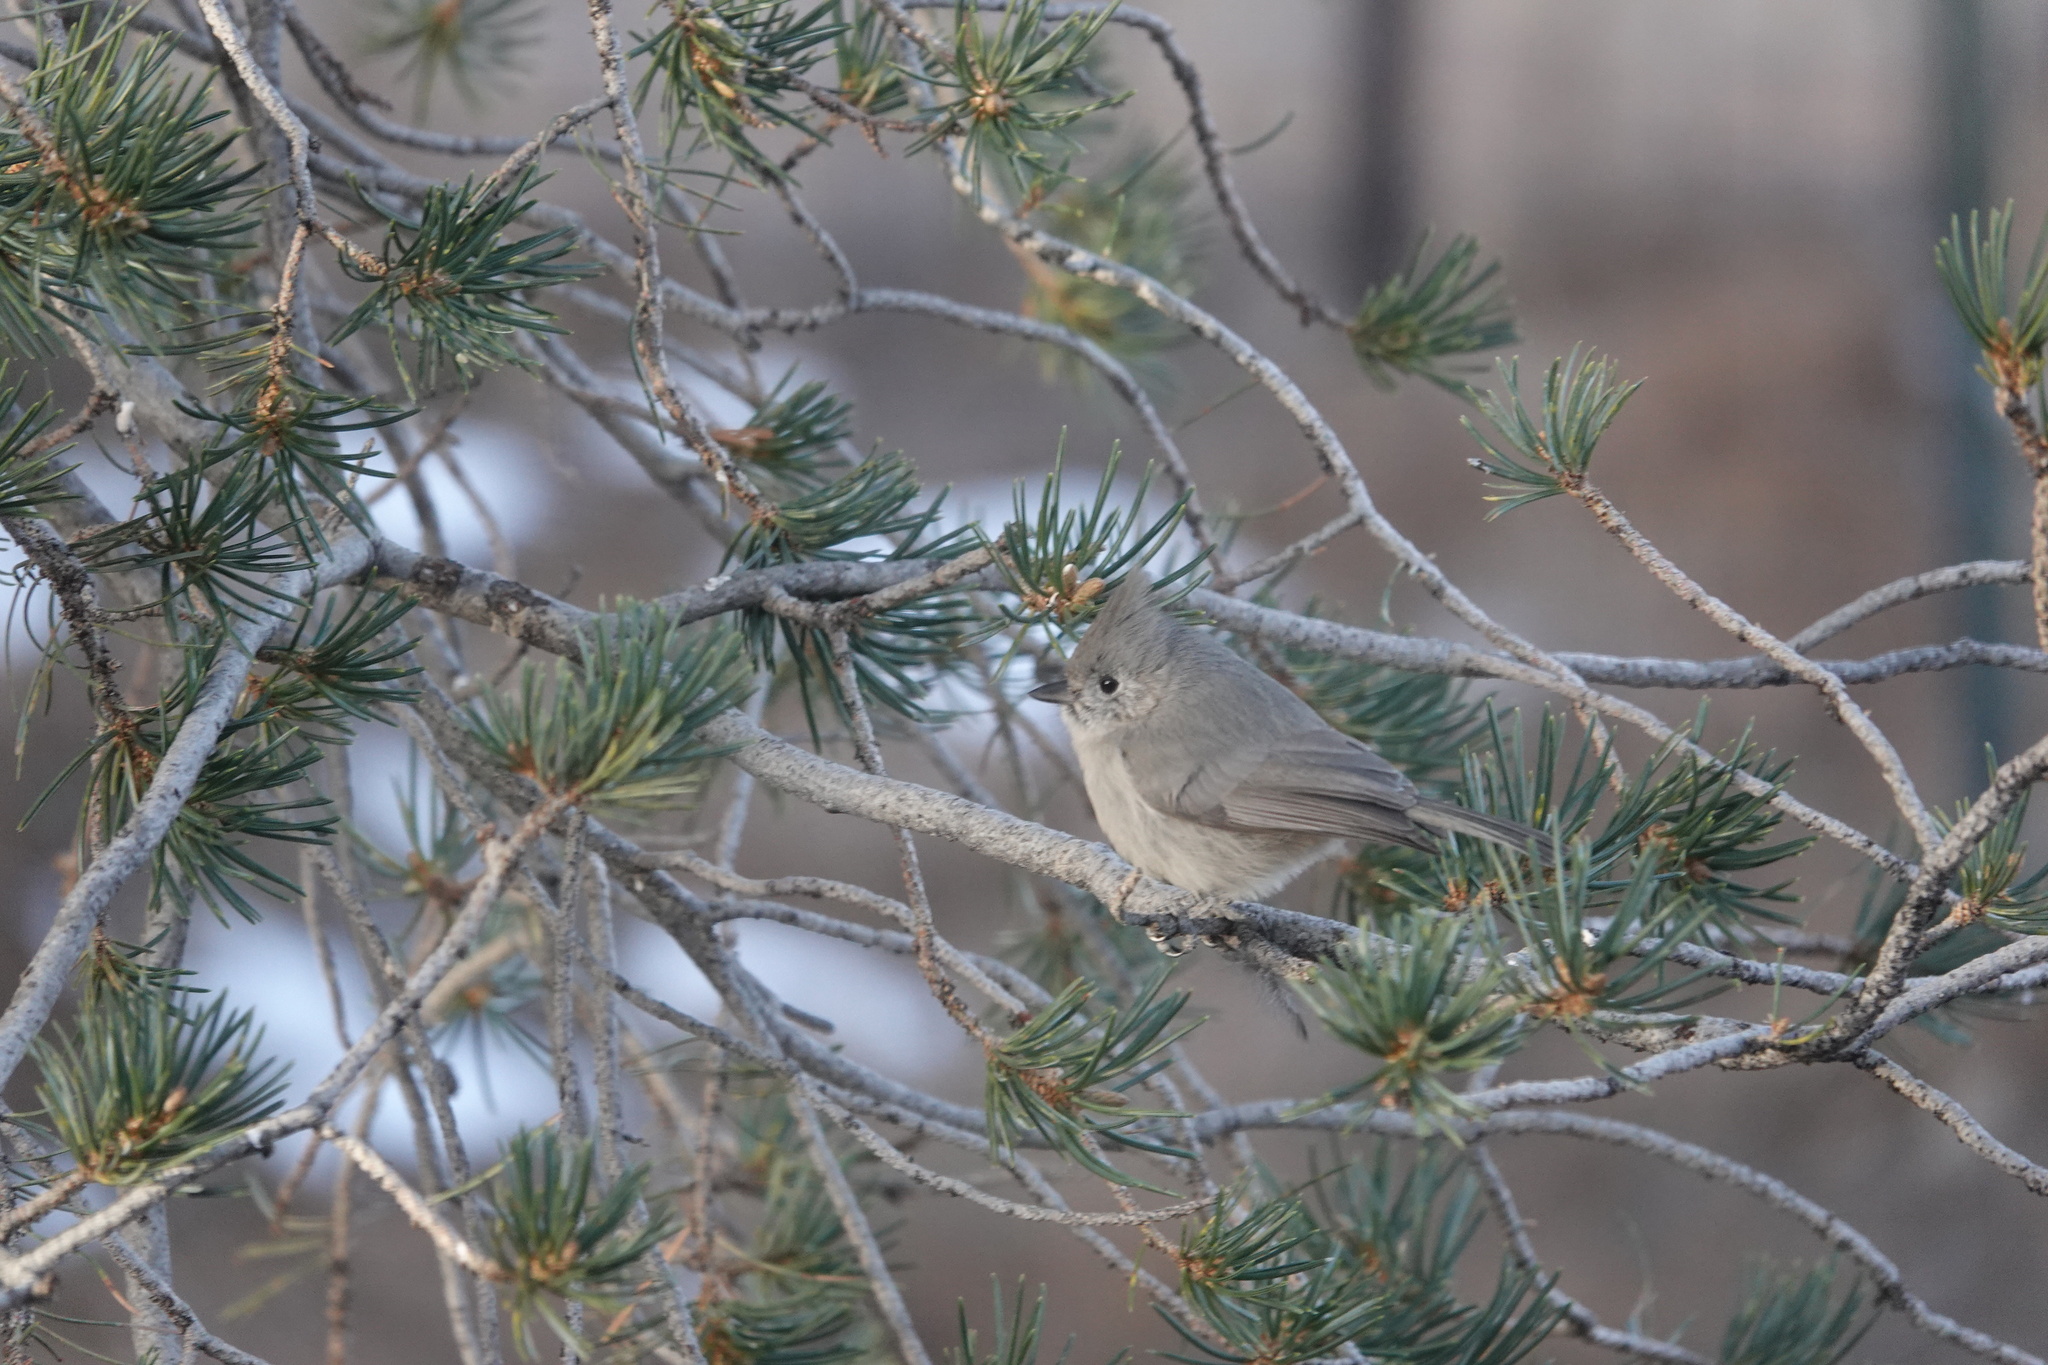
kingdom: Animalia
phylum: Chordata
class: Aves
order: Passeriformes
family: Paridae
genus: Baeolophus
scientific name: Baeolophus ridgwayi
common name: Juniper titmouse
